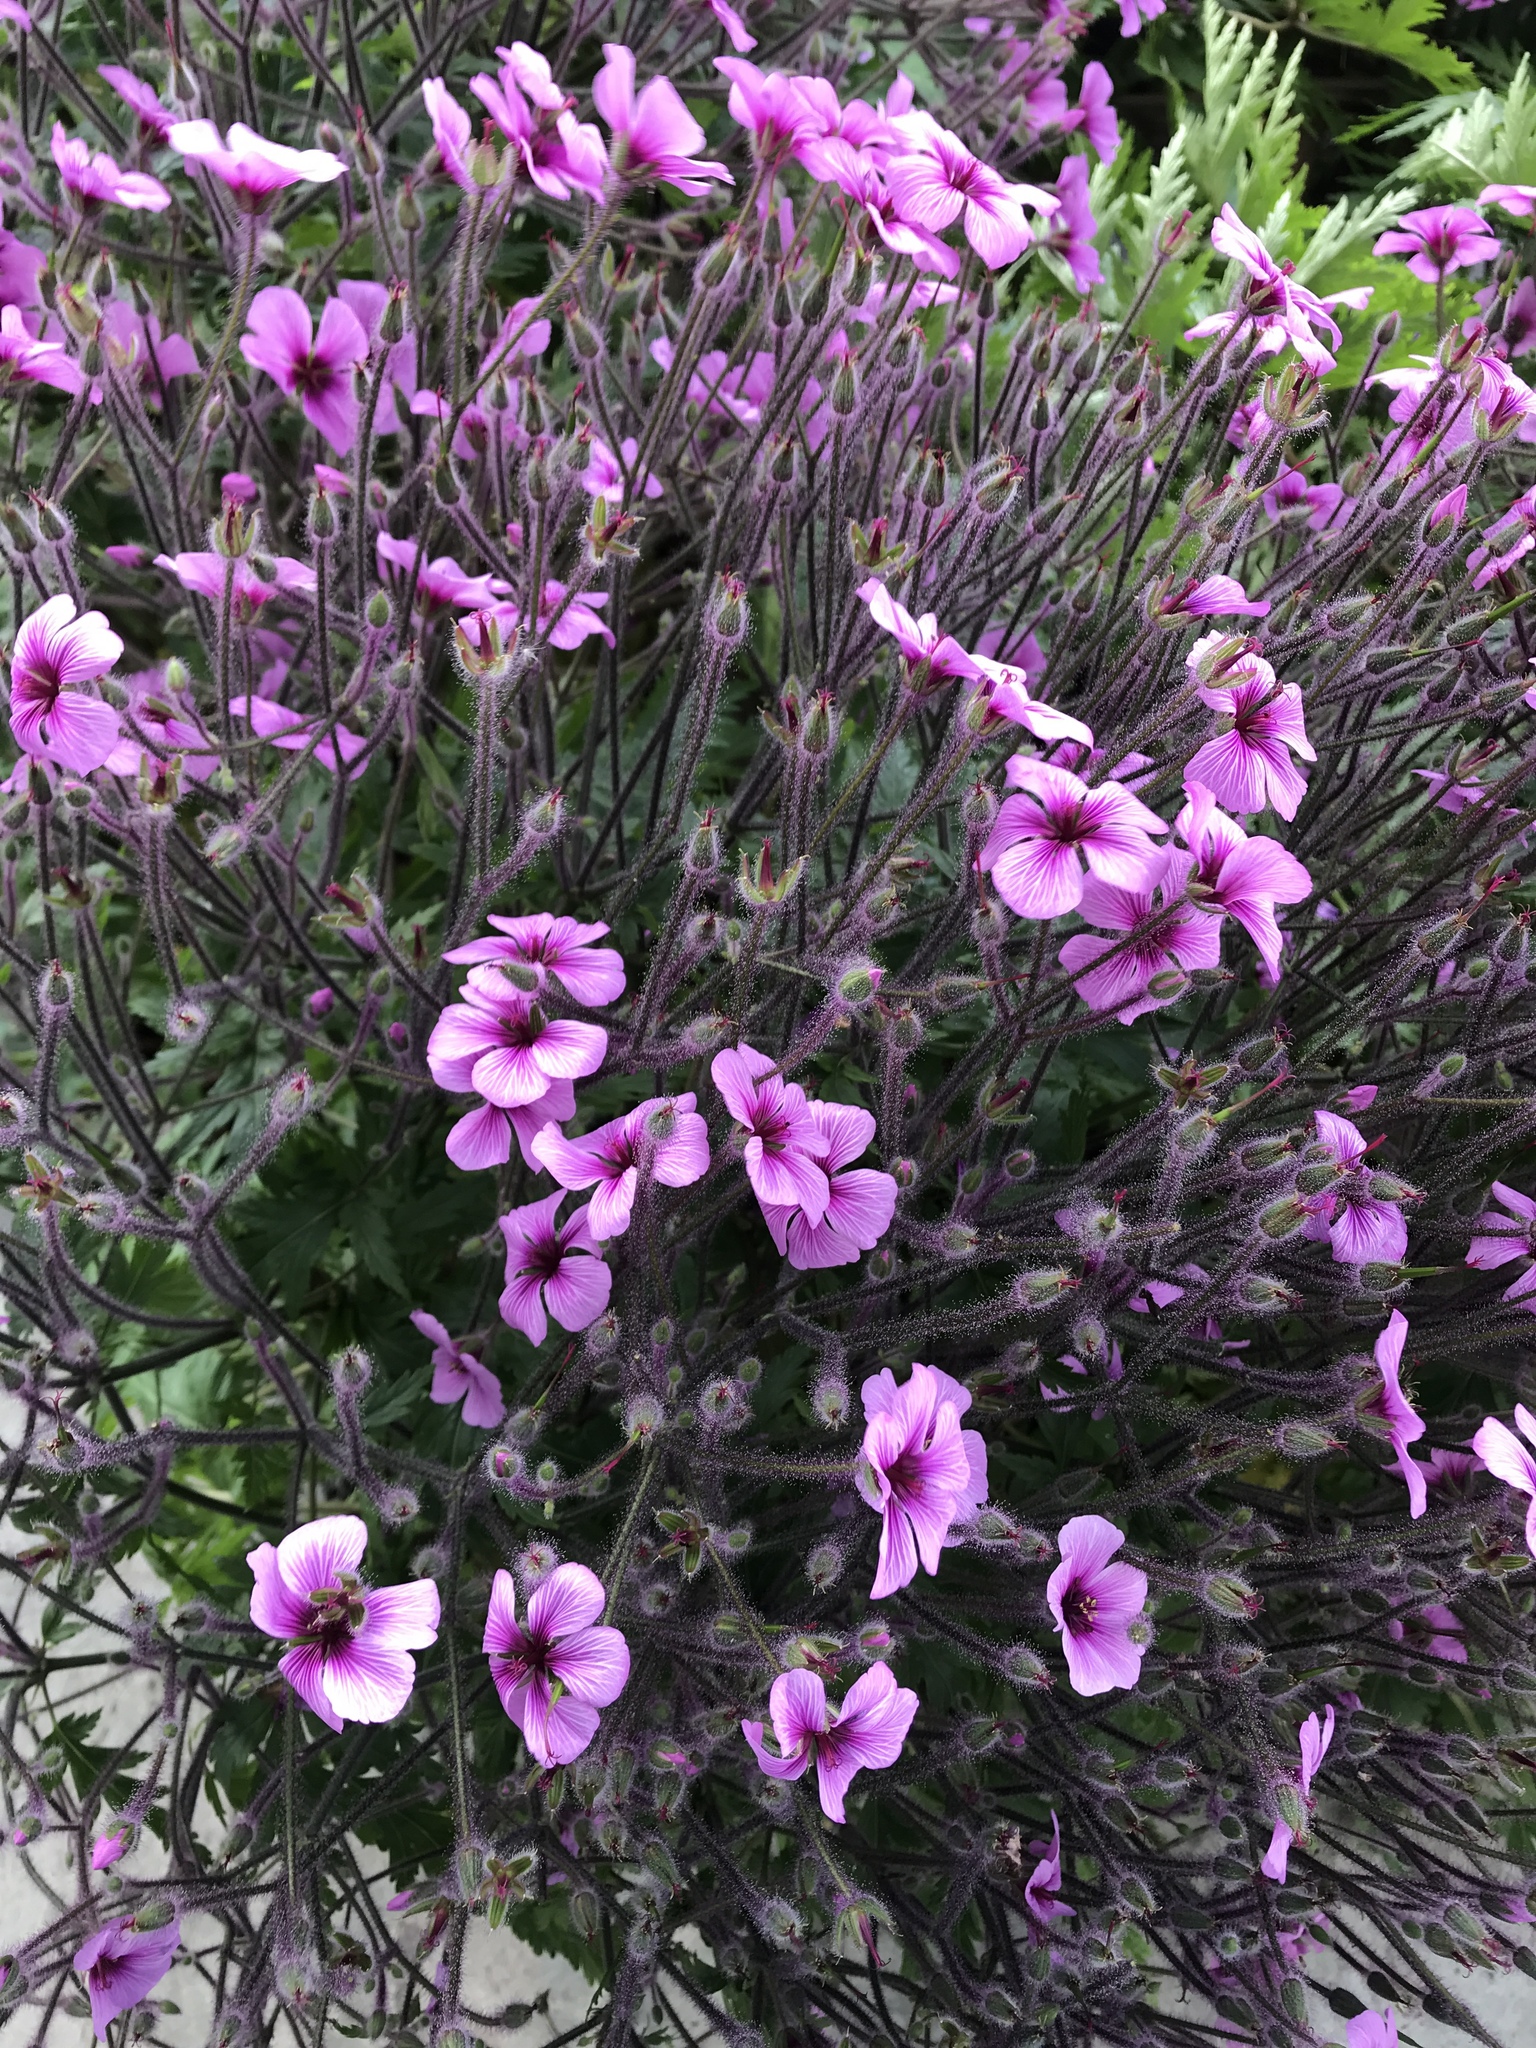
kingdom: Plantae
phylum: Tracheophyta
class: Magnoliopsida
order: Geraniales
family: Geraniaceae
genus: Geranium
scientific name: Geranium maderense
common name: Giant herb-robert
